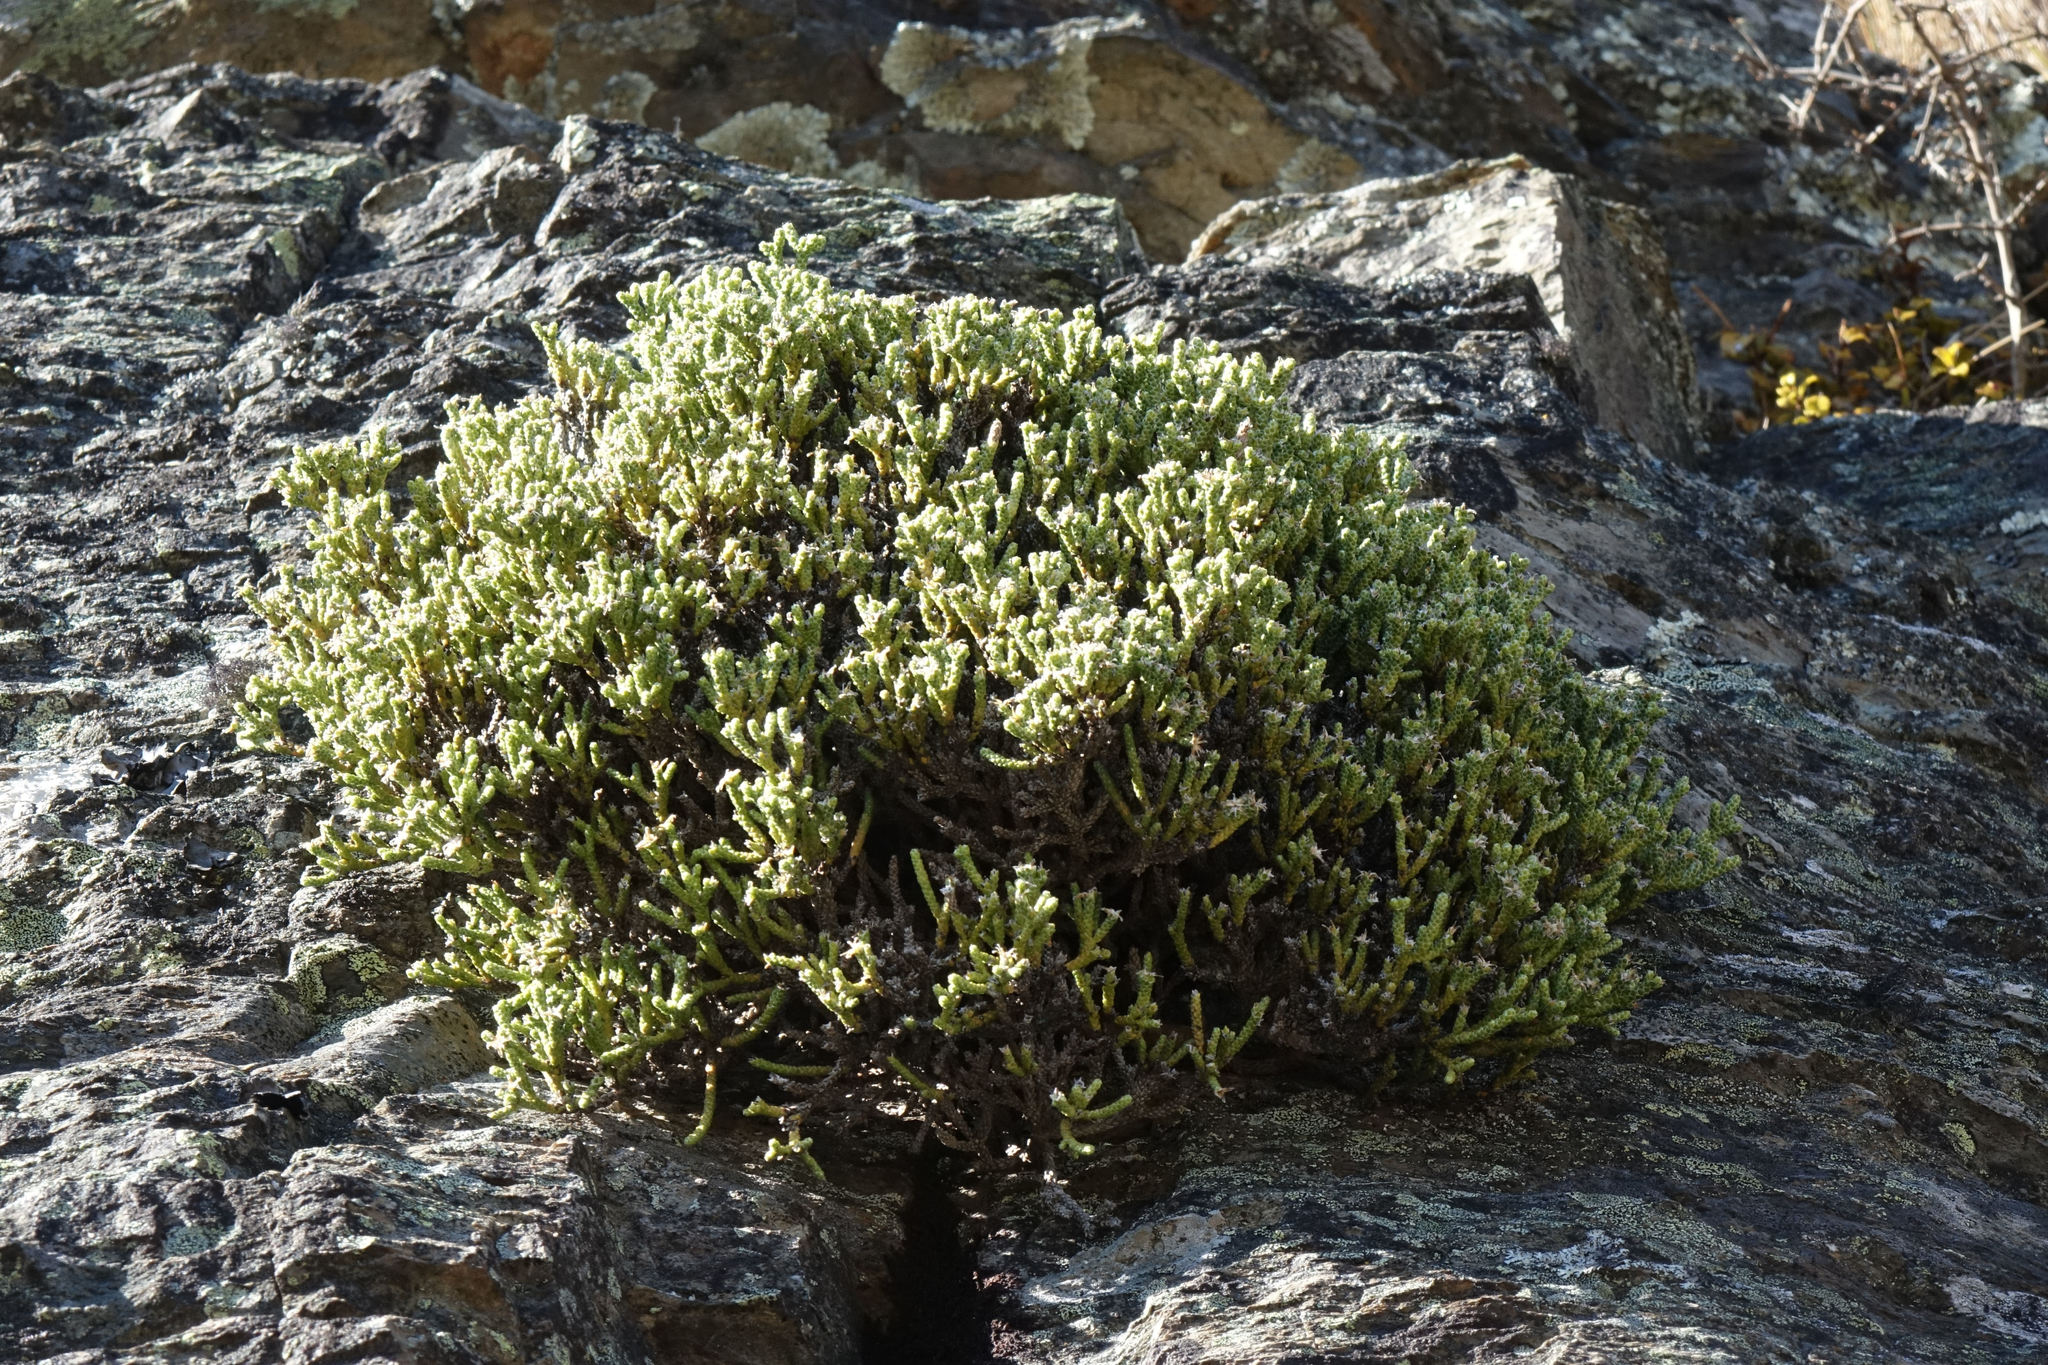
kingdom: Plantae
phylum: Tracheophyta
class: Magnoliopsida
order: Asterales
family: Asteraceae
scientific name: Asteraceae
